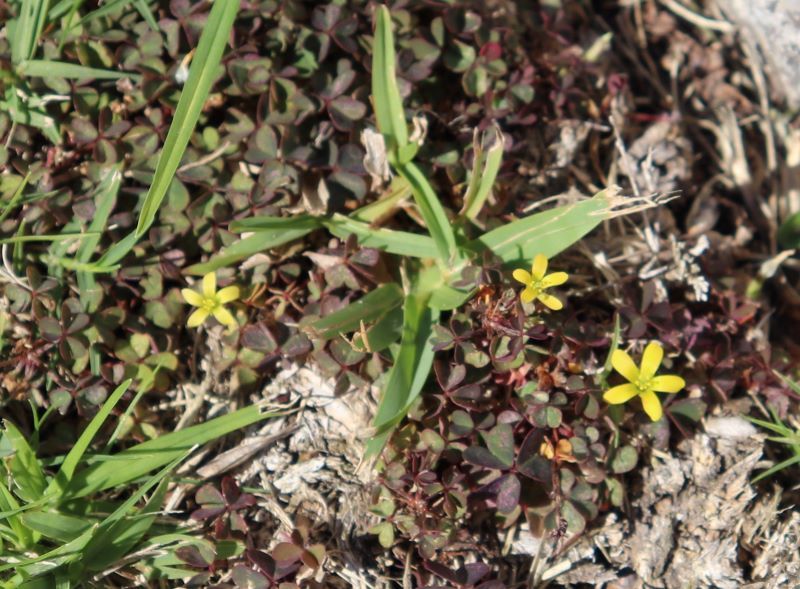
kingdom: Plantae
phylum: Tracheophyta
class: Magnoliopsida
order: Oxalidales
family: Oxalidaceae
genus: Oxalis
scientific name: Oxalis corniculata
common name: Procumbent yellow-sorrel
